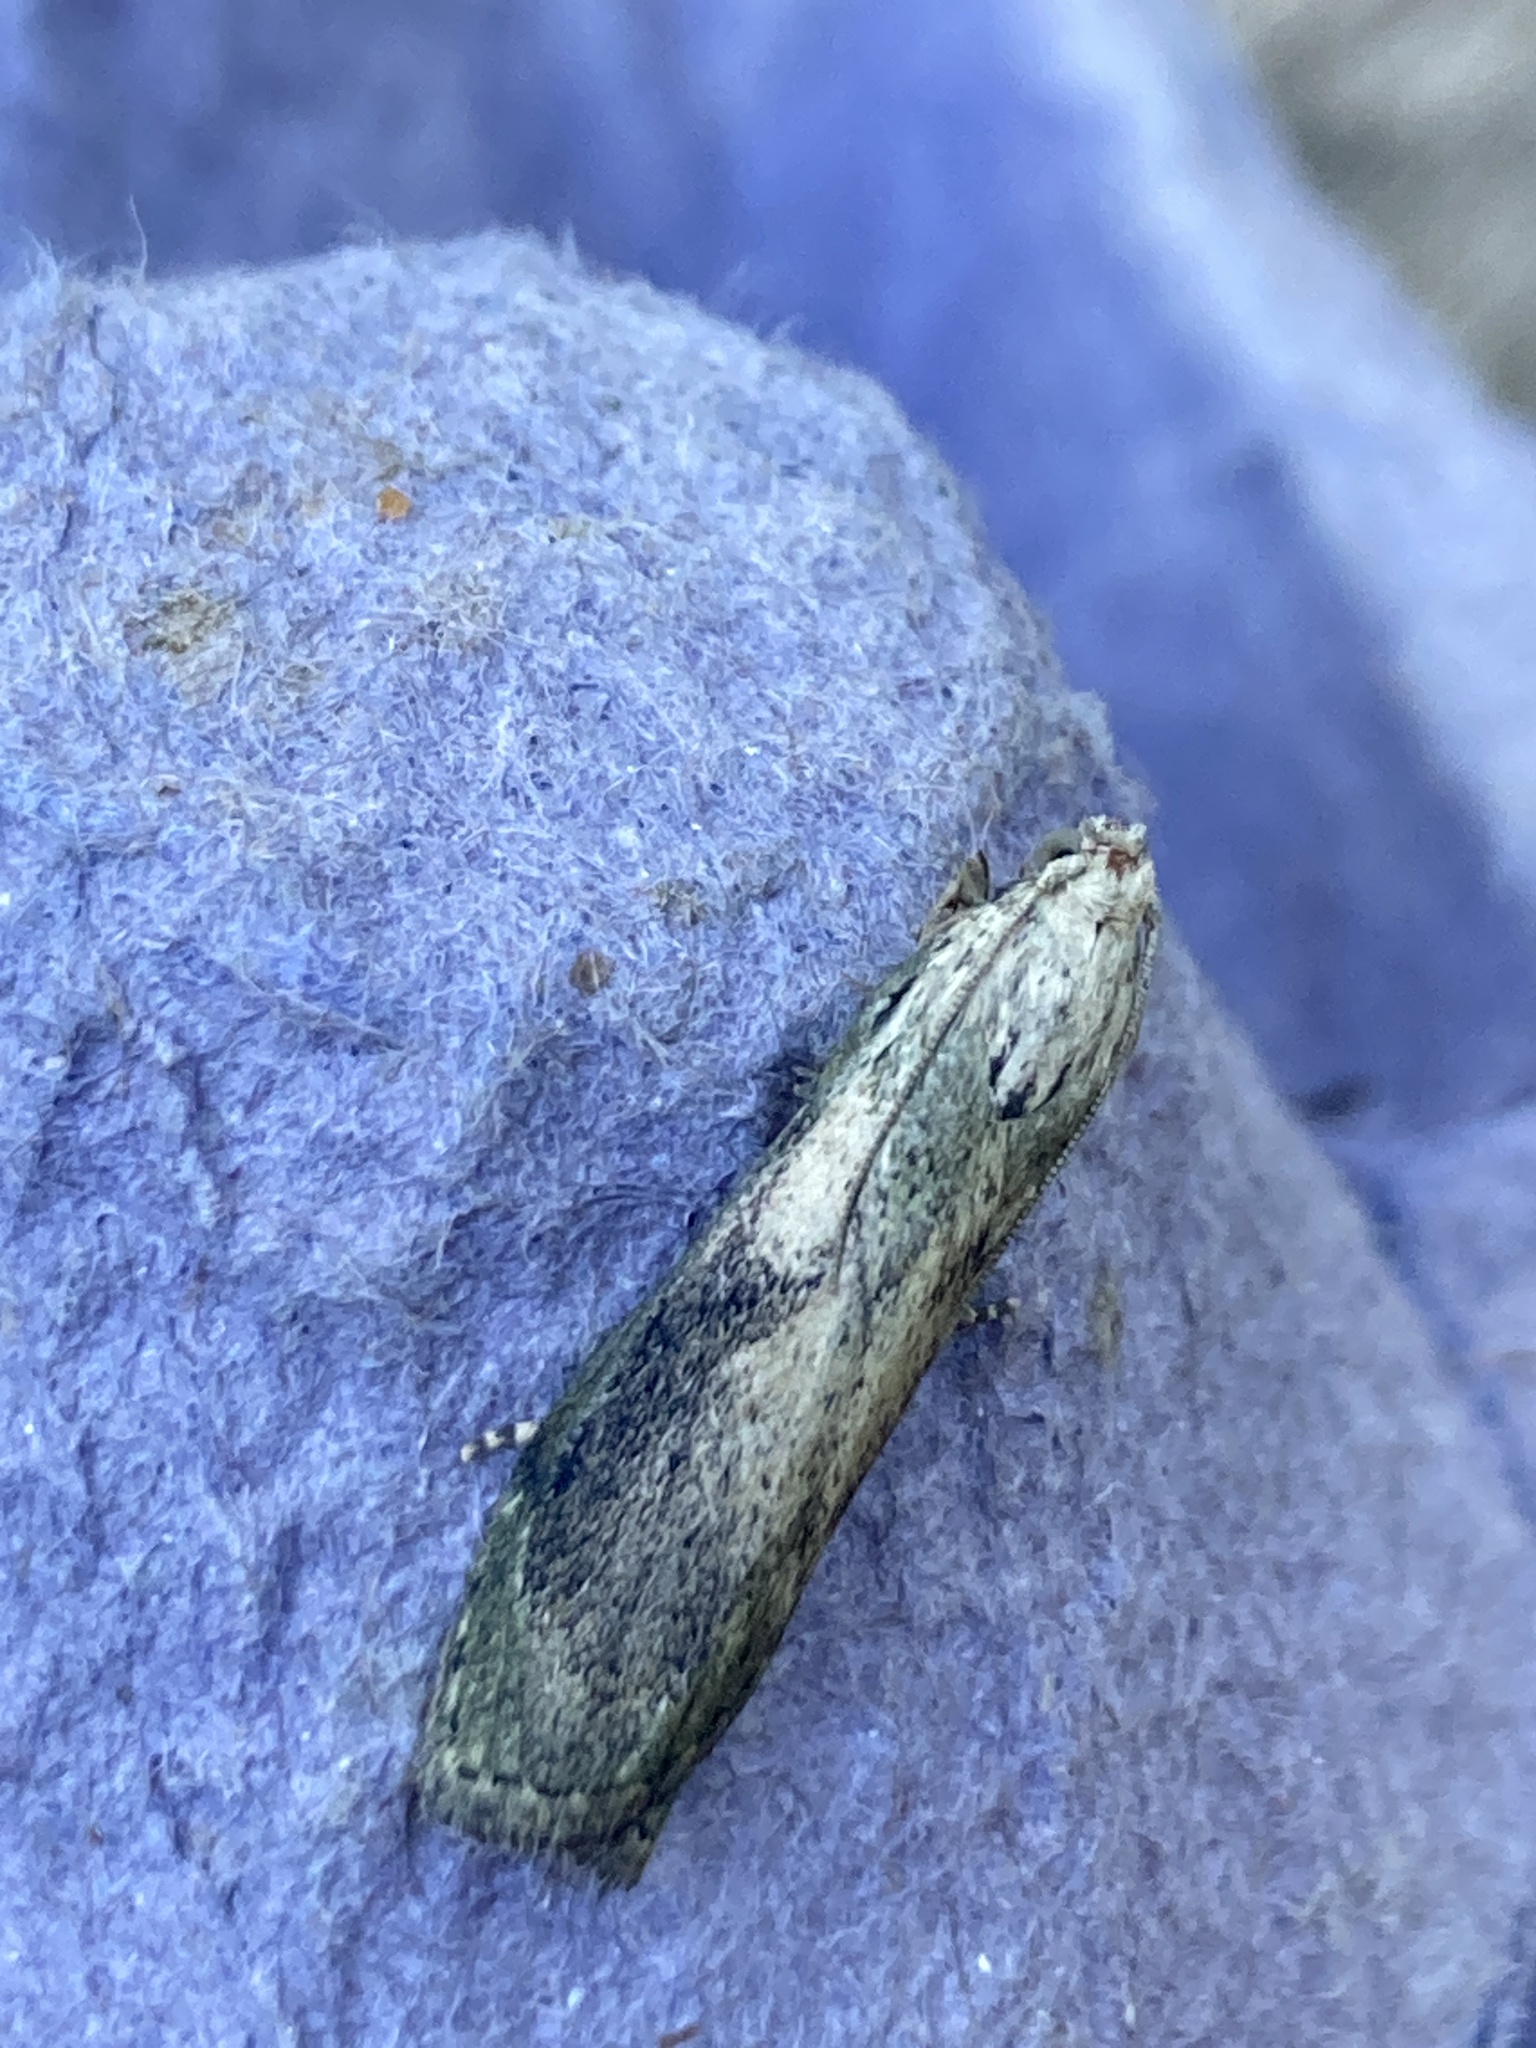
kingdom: Animalia
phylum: Arthropoda
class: Insecta
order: Lepidoptera
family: Pyralidae
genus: Aphomia
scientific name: Aphomia sociella
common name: Bee moth
